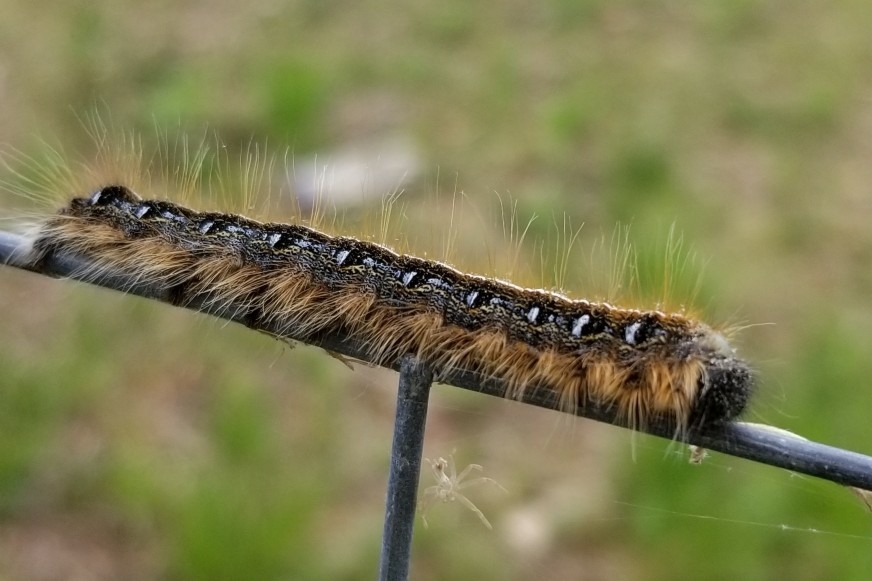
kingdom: Animalia
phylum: Arthropoda
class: Insecta
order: Lepidoptera
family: Lasiocampidae
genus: Malacosoma
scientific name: Malacosoma americana
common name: Eastern tent caterpillar moth
